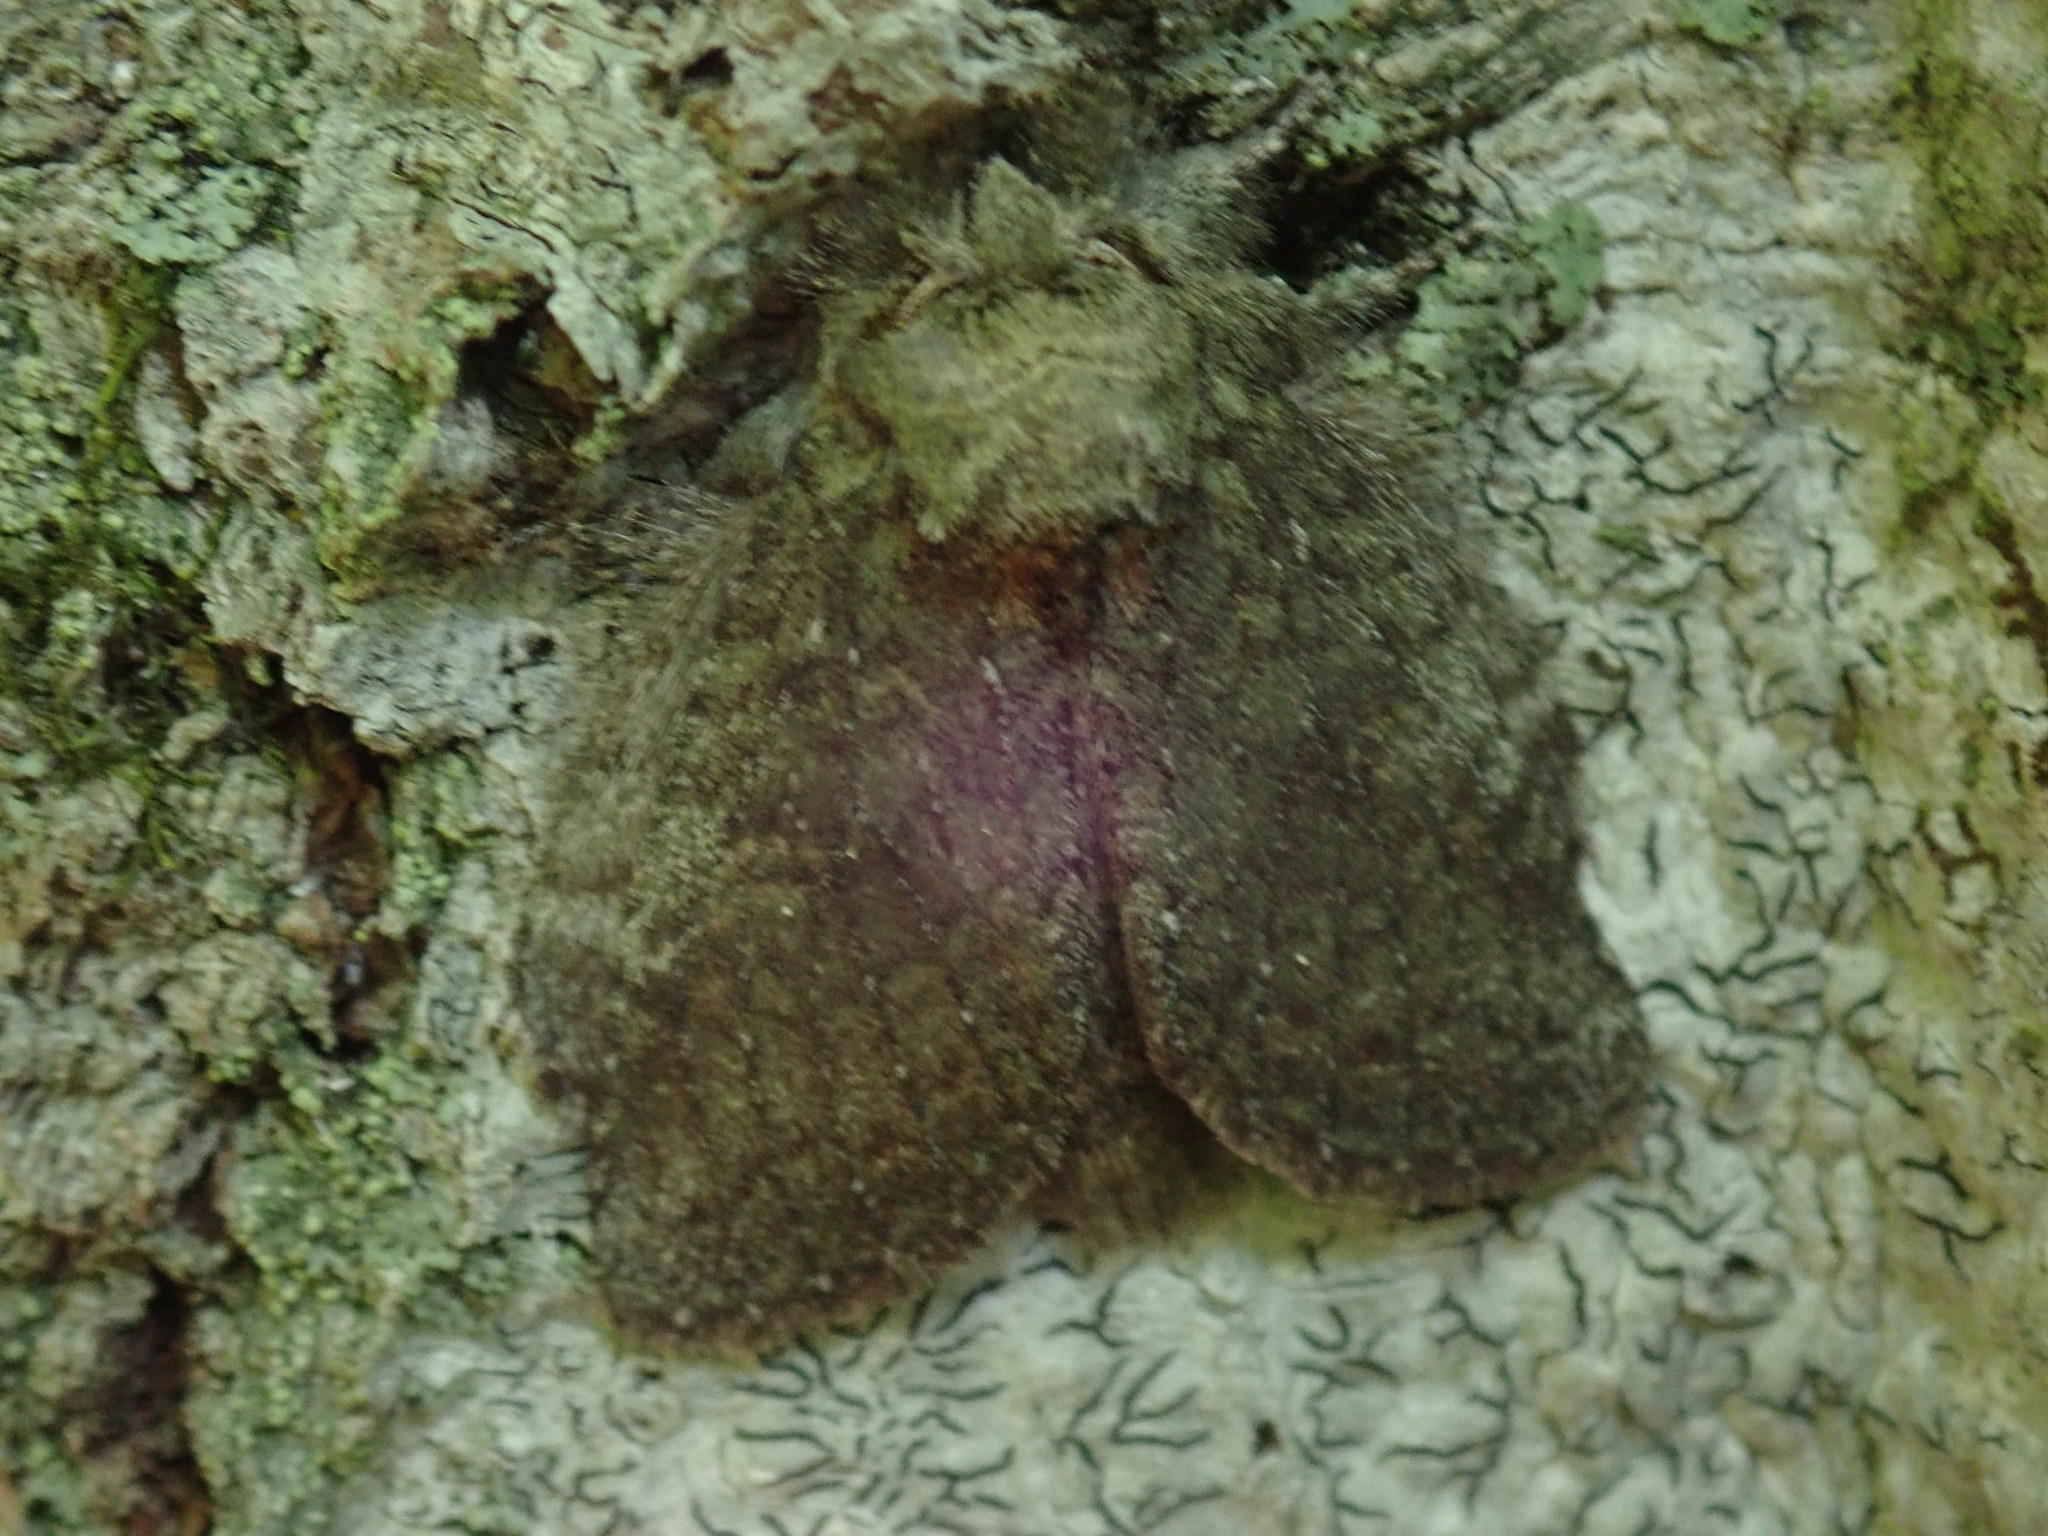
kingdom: Animalia
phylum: Arthropoda
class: Insecta
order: Lepidoptera
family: Notodontidae
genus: Disphragis
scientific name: Disphragis Cecrita guttivitta
